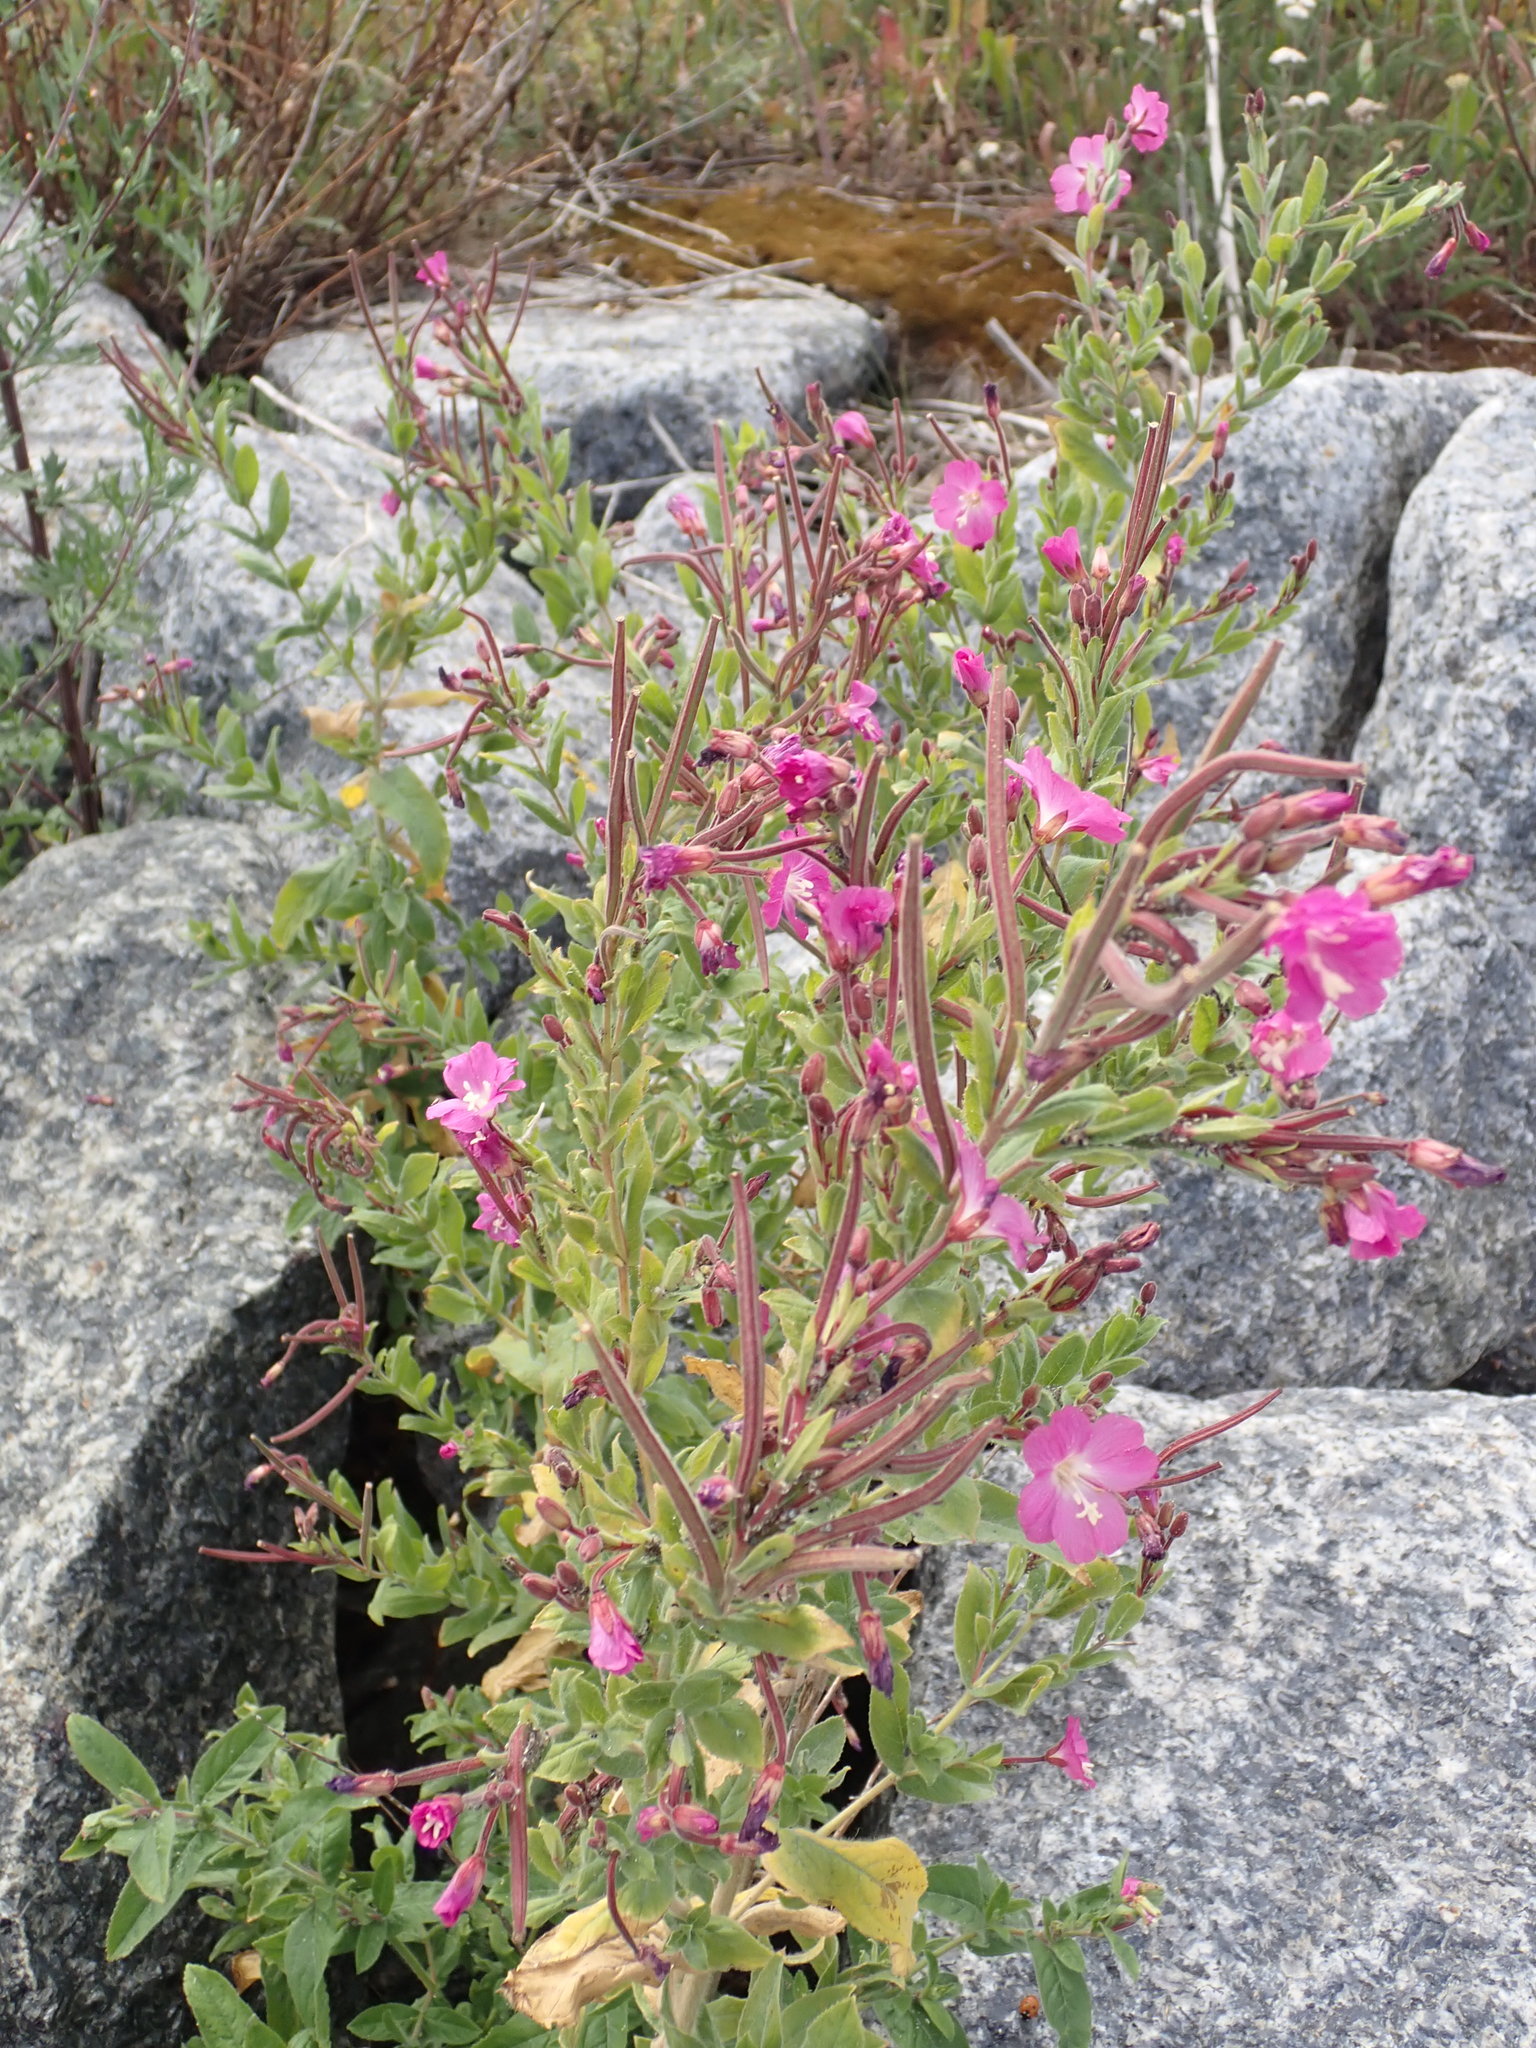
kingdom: Plantae
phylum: Tracheophyta
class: Magnoliopsida
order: Myrtales
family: Onagraceae
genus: Epilobium
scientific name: Epilobium hirsutum
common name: Great willowherb
